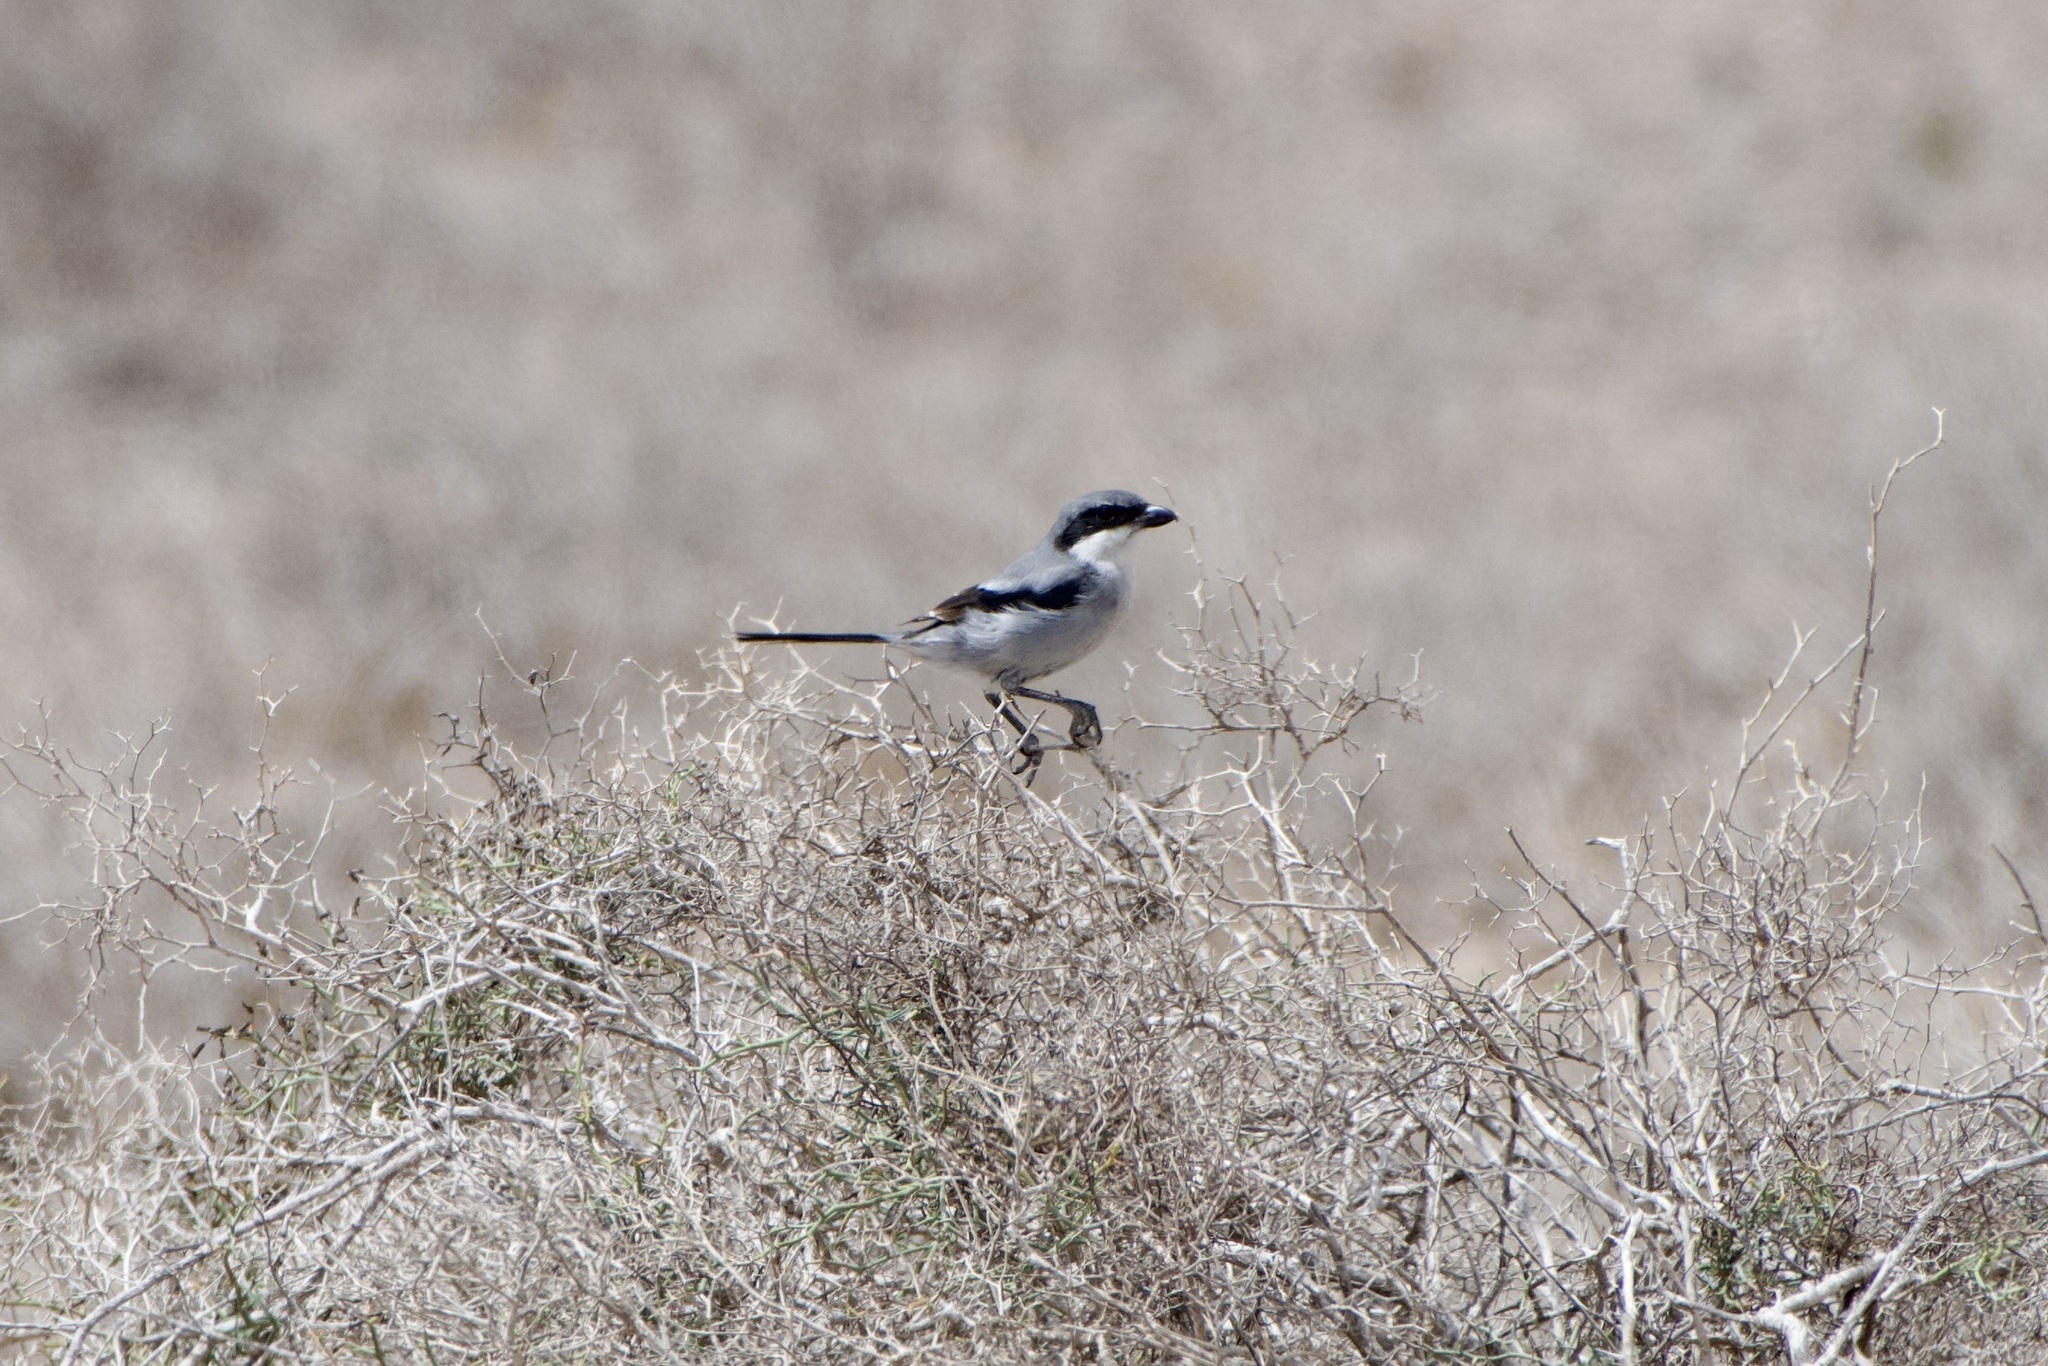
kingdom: Animalia
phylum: Chordata
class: Aves
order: Passeriformes
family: Laniidae
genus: Lanius
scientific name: Lanius excubitor
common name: Great grey shrike
